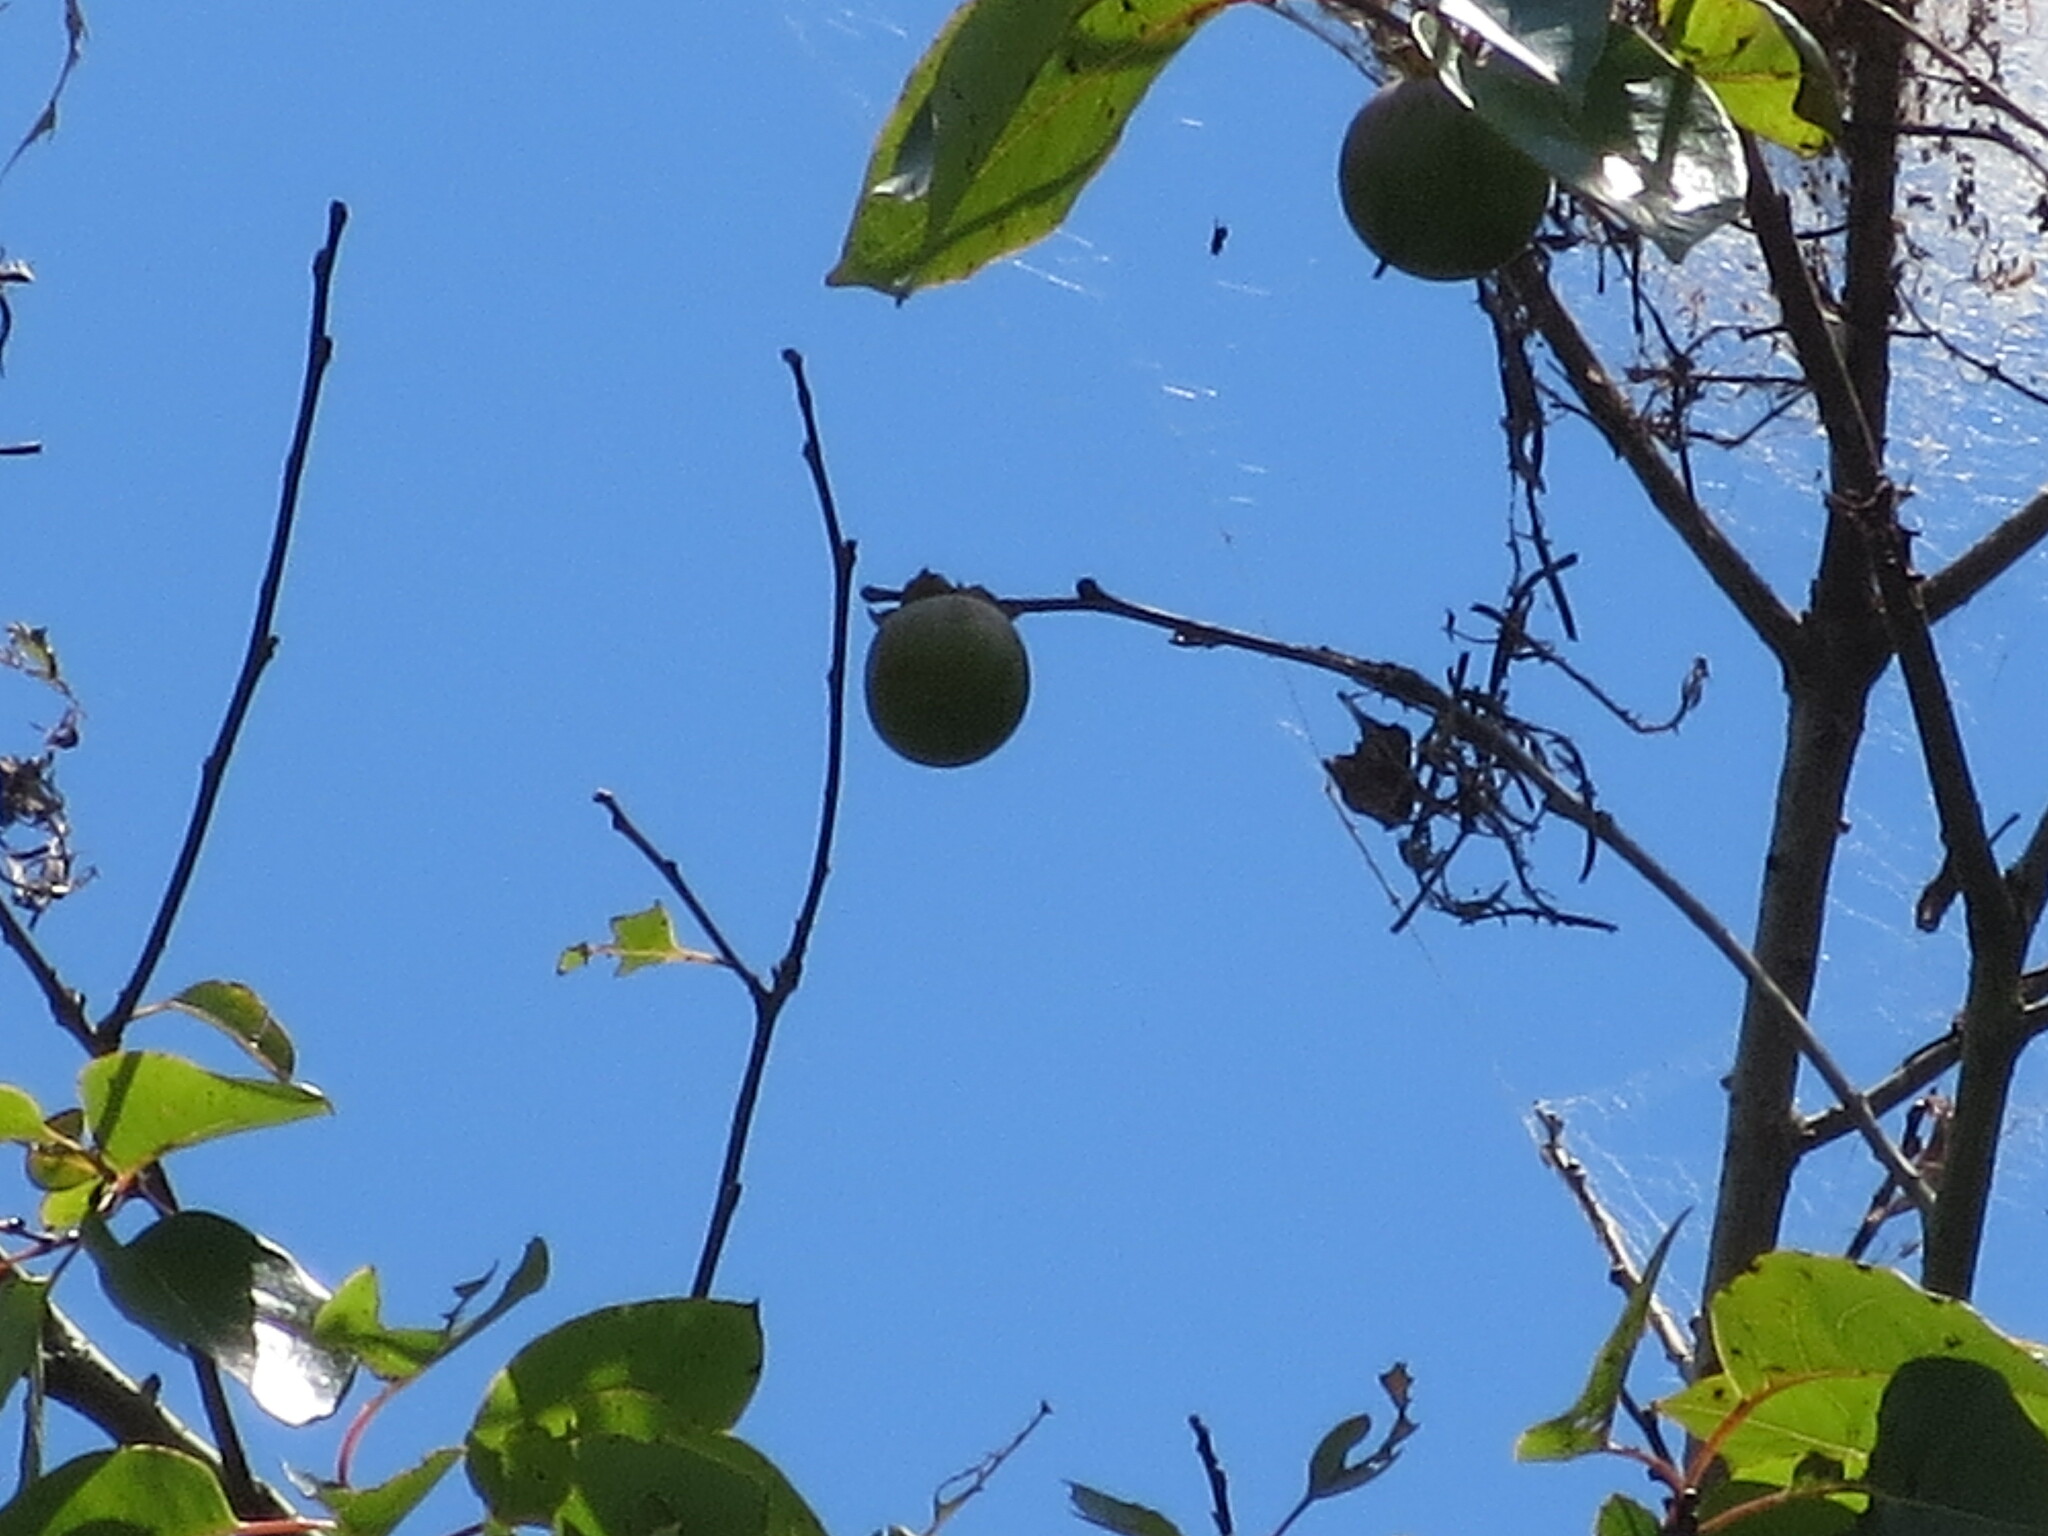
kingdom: Plantae
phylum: Tracheophyta
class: Magnoliopsida
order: Ericales
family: Ebenaceae
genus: Diospyros
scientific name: Diospyros virginiana
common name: Persimmon
